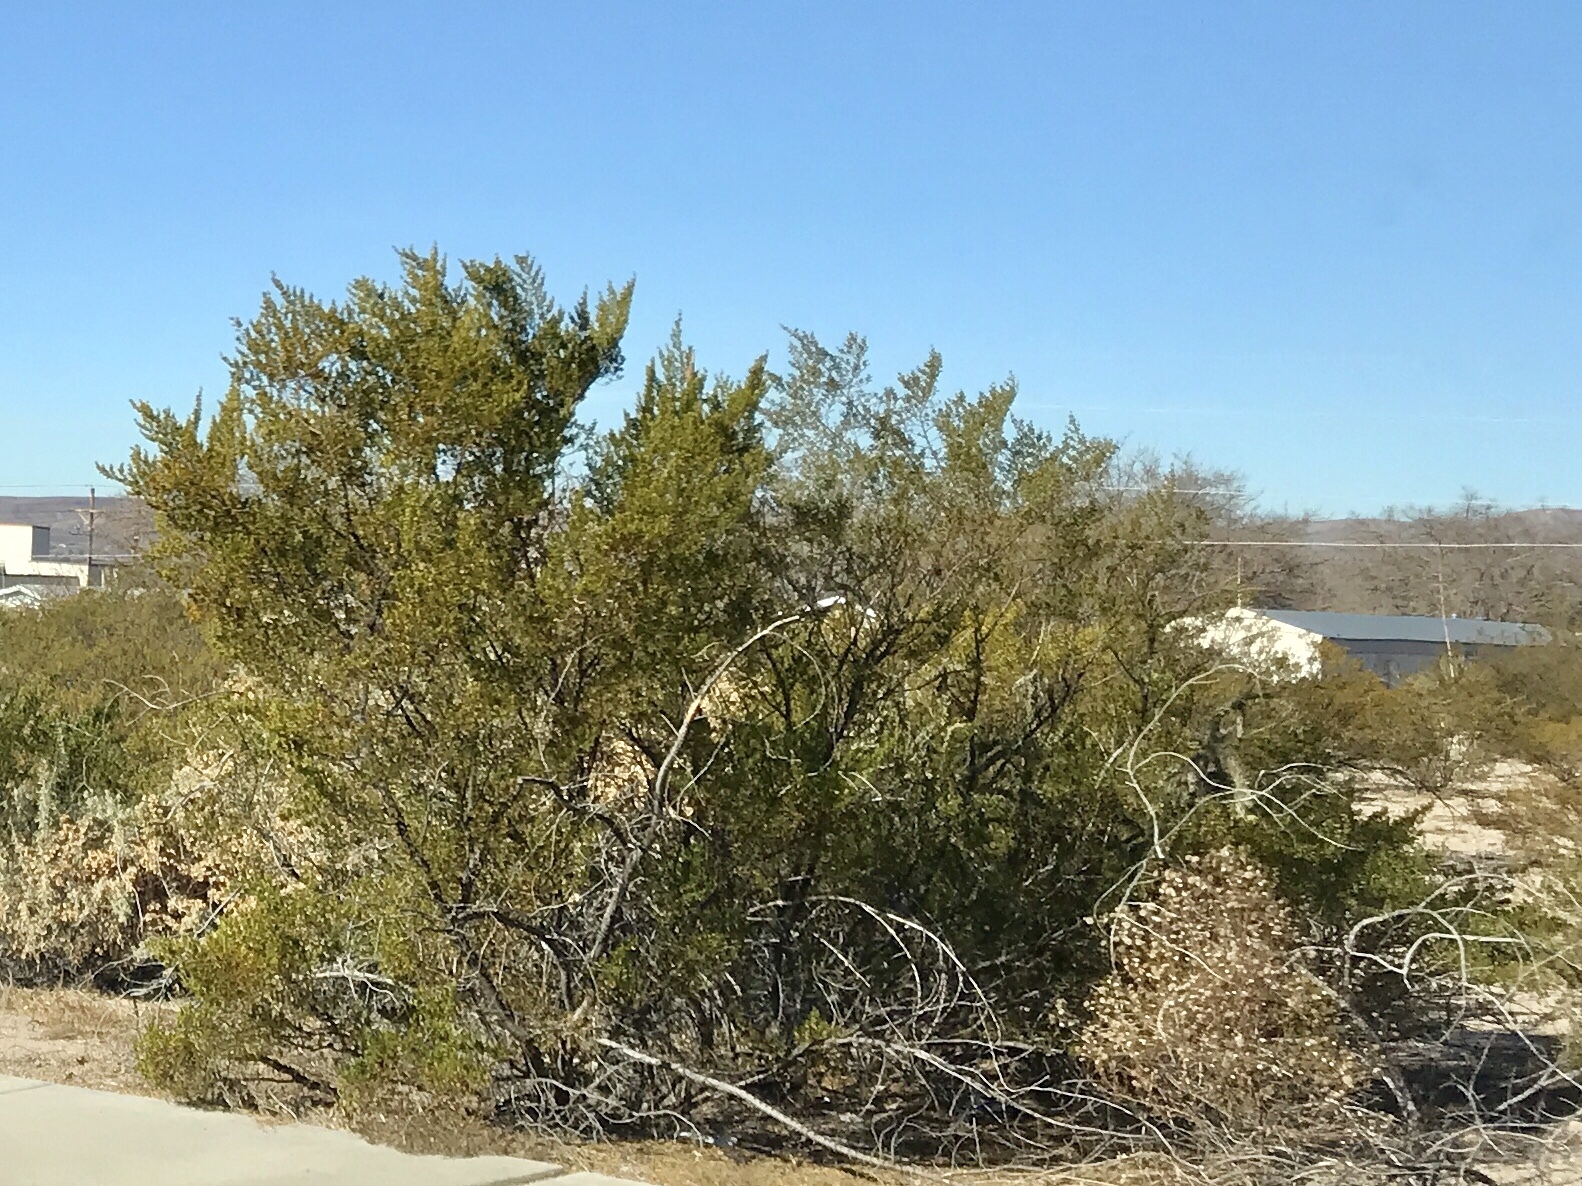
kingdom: Plantae
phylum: Tracheophyta
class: Magnoliopsida
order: Zygophyllales
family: Zygophyllaceae
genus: Larrea
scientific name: Larrea tridentata
